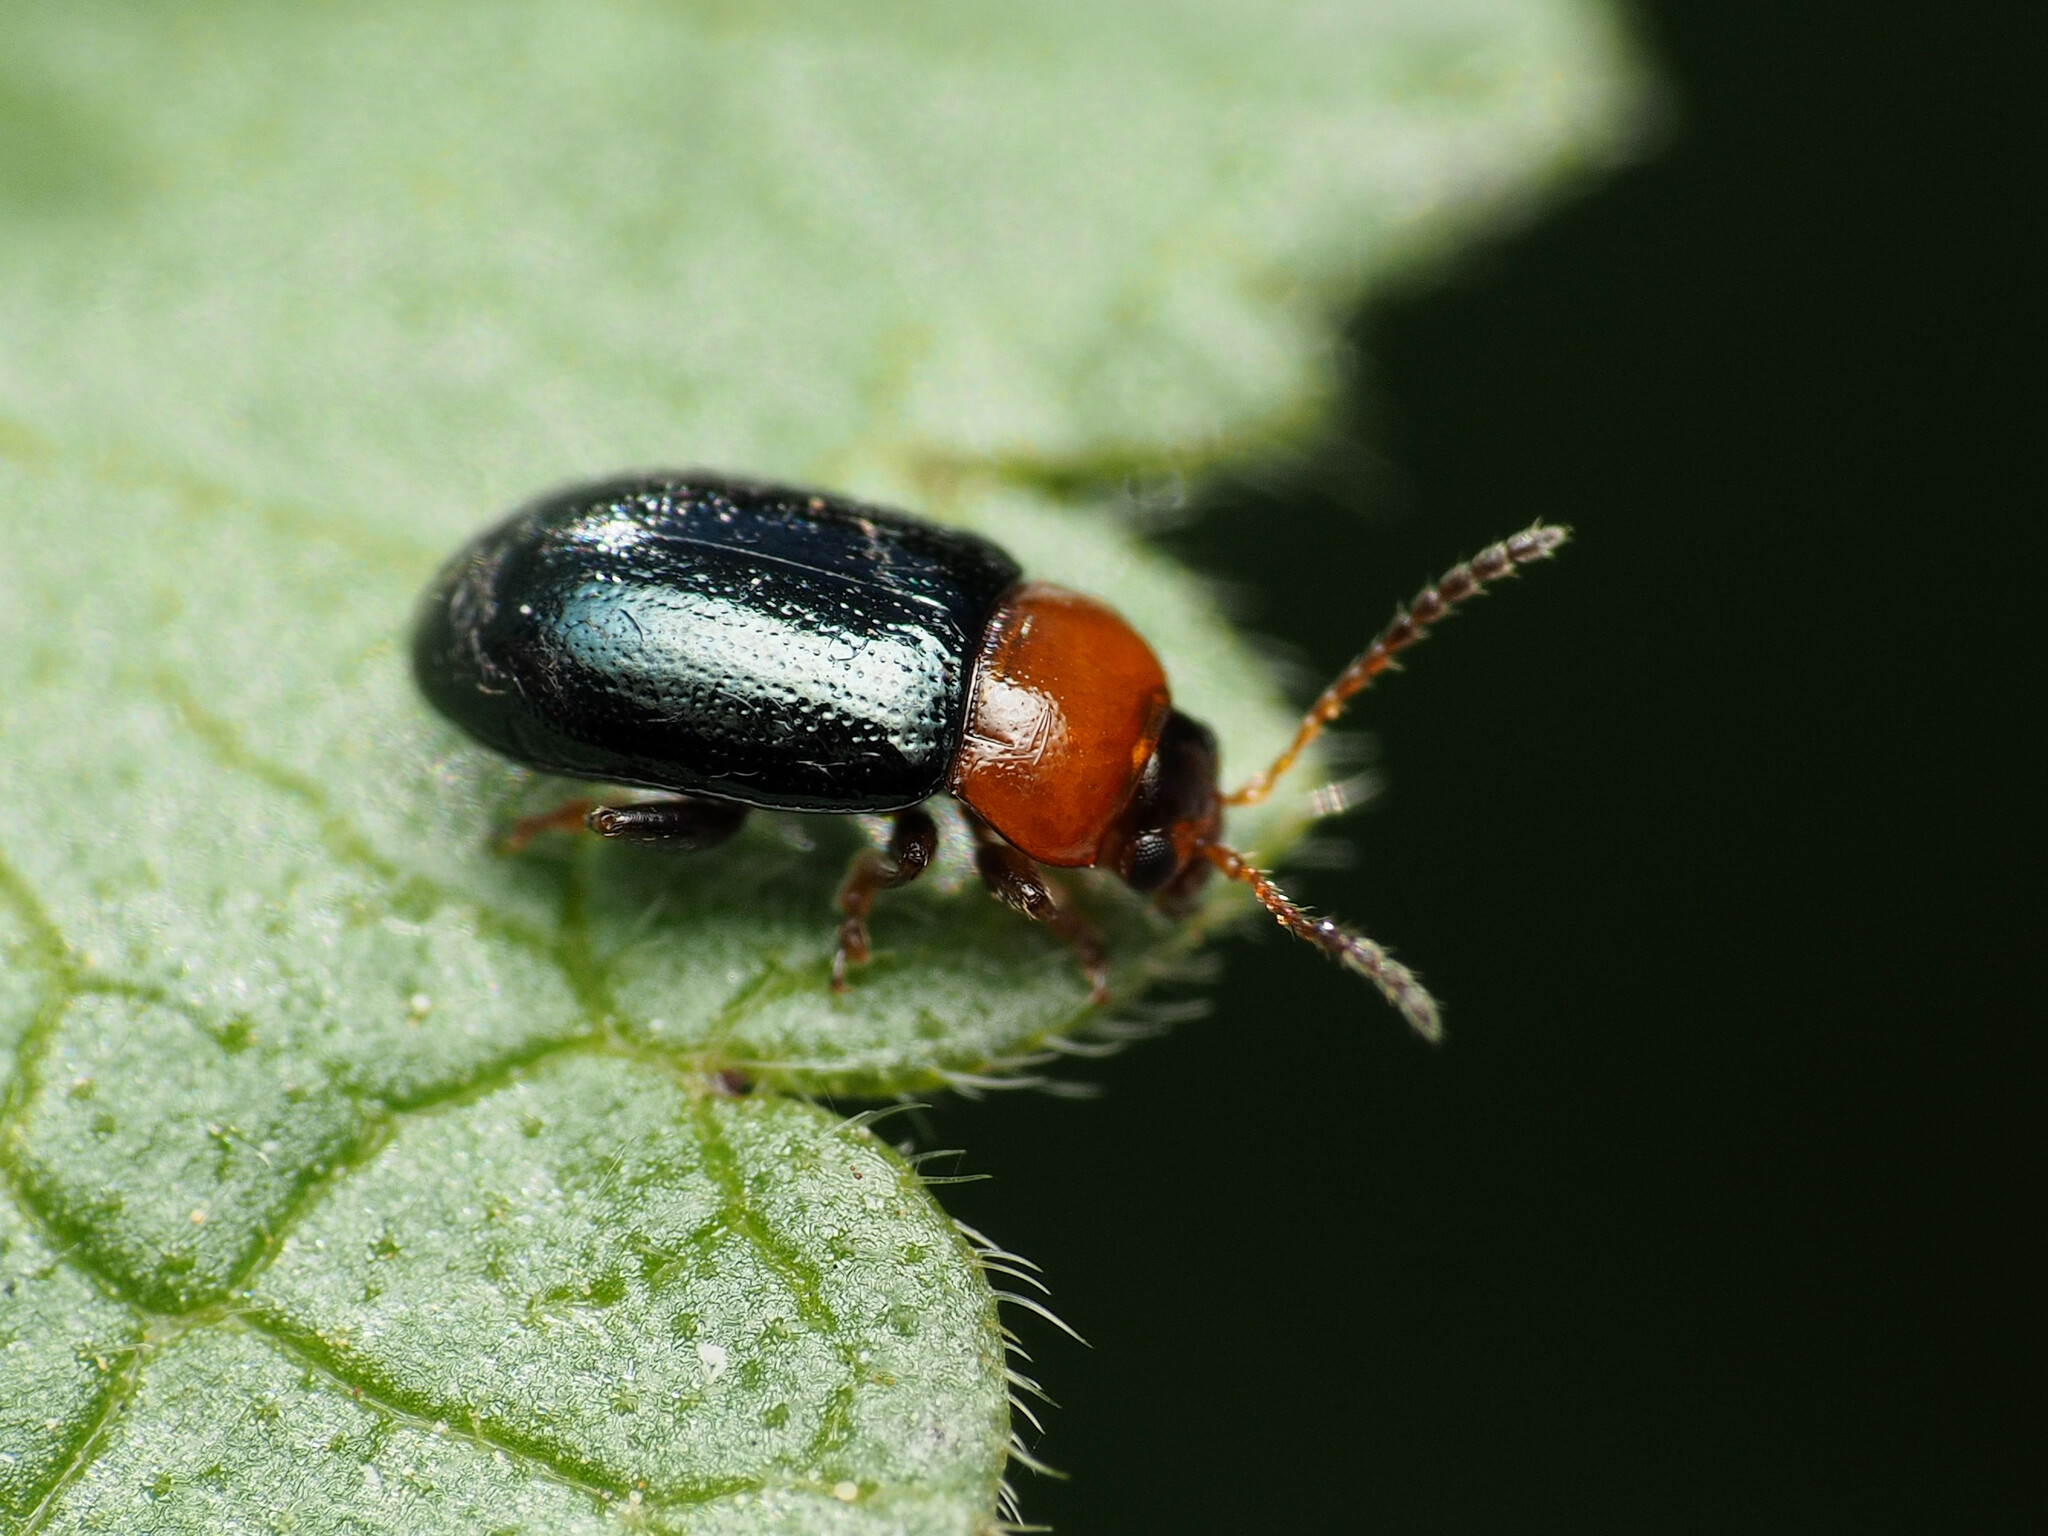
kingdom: Animalia
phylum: Arthropoda
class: Insecta
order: Coleoptera
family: Chrysomelidae
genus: Podagrica
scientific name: Podagrica malvae
